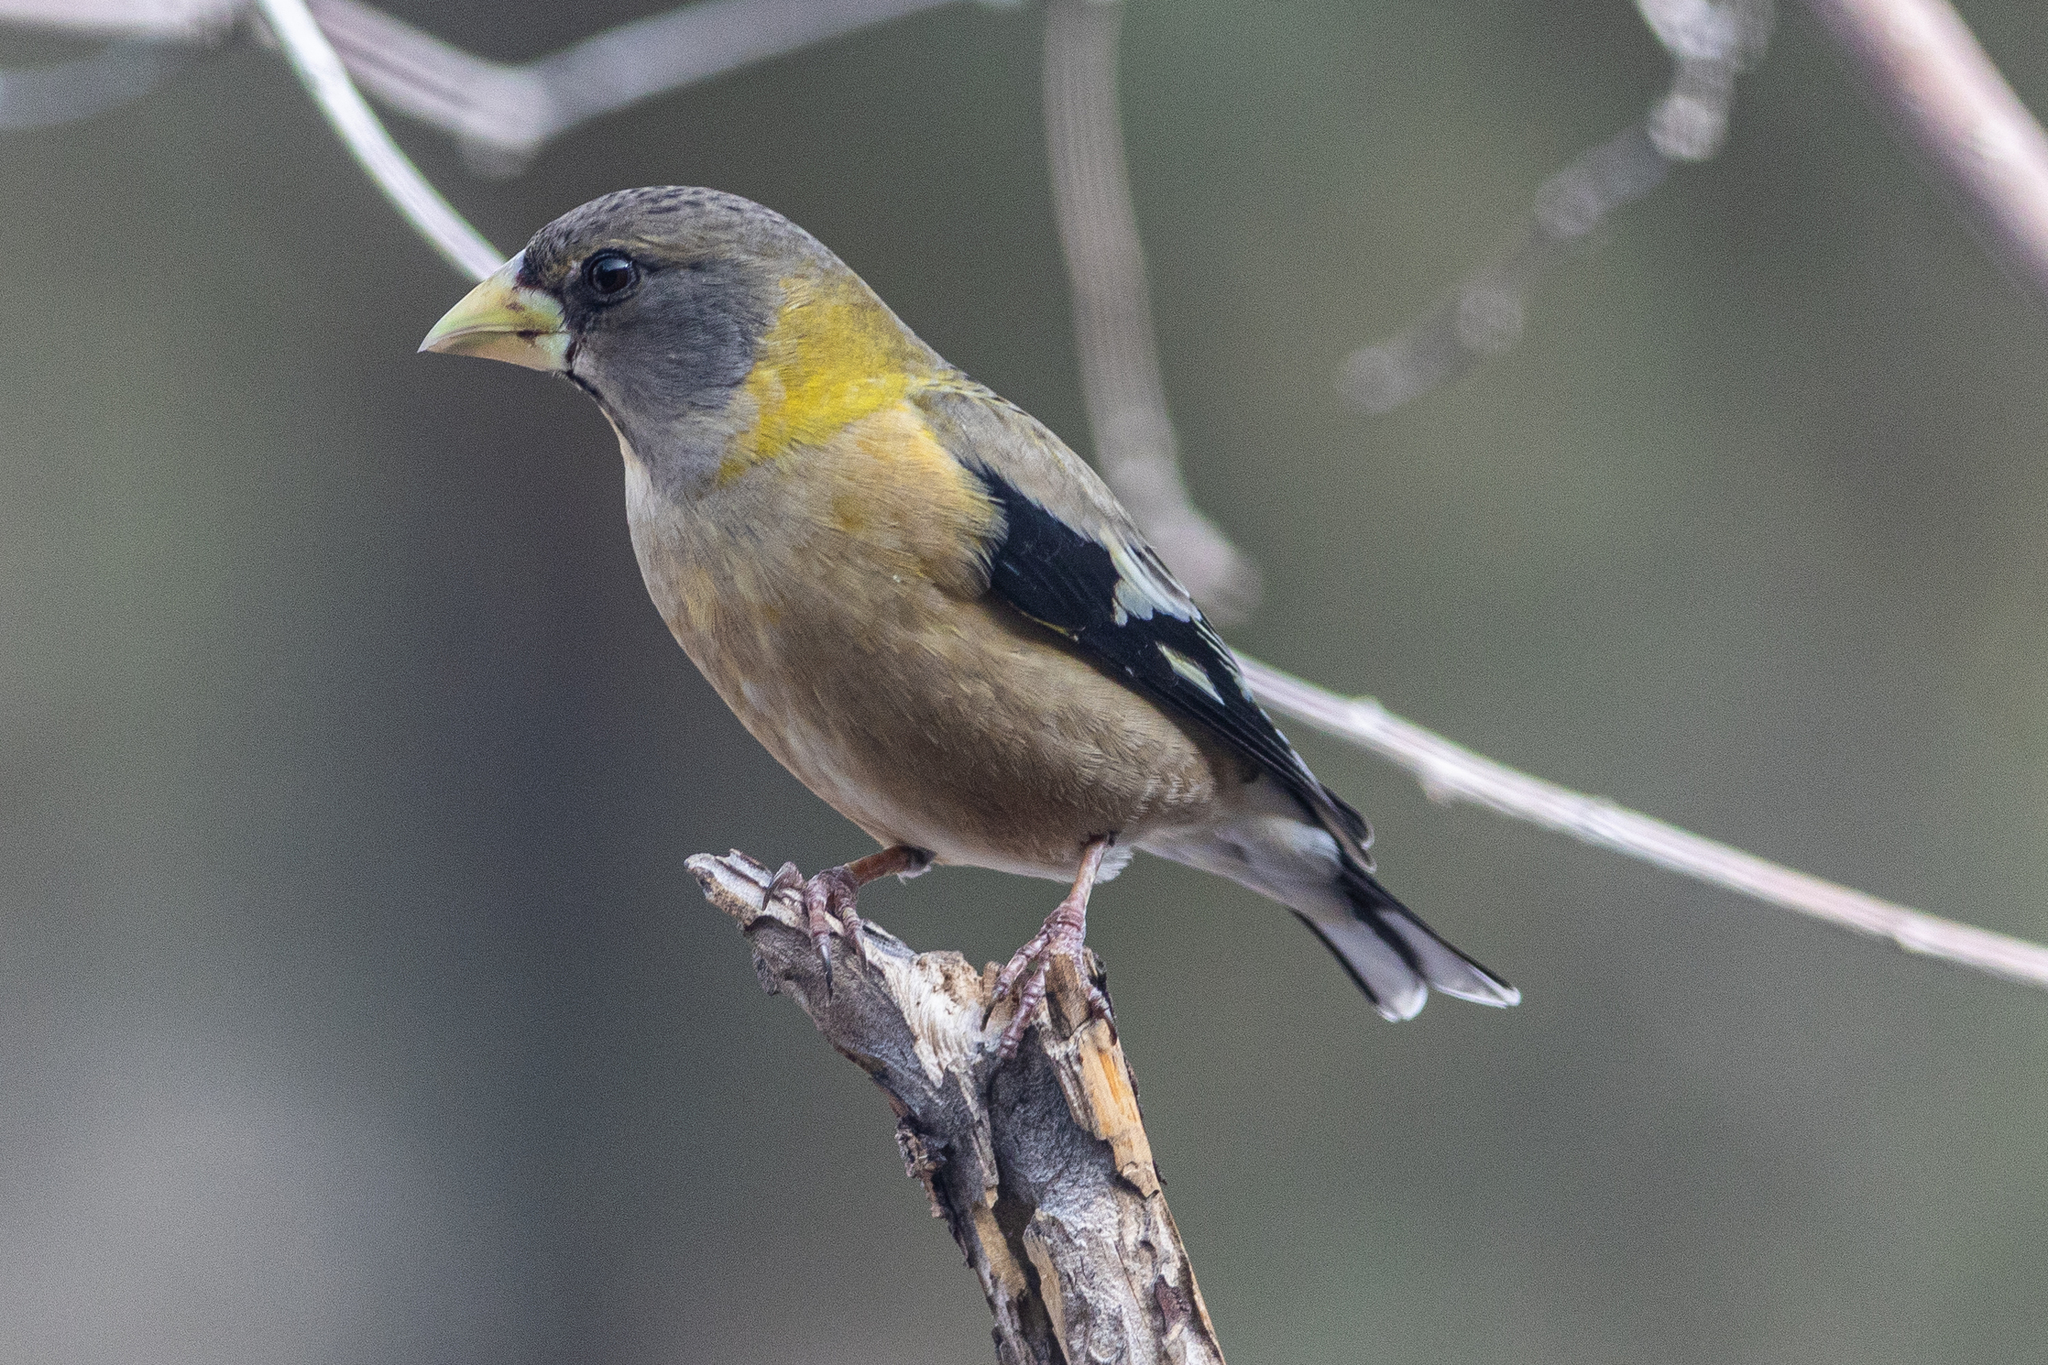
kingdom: Animalia
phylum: Chordata
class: Aves
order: Passeriformes
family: Fringillidae
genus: Hesperiphona
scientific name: Hesperiphona vespertina
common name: Evening grosbeak
